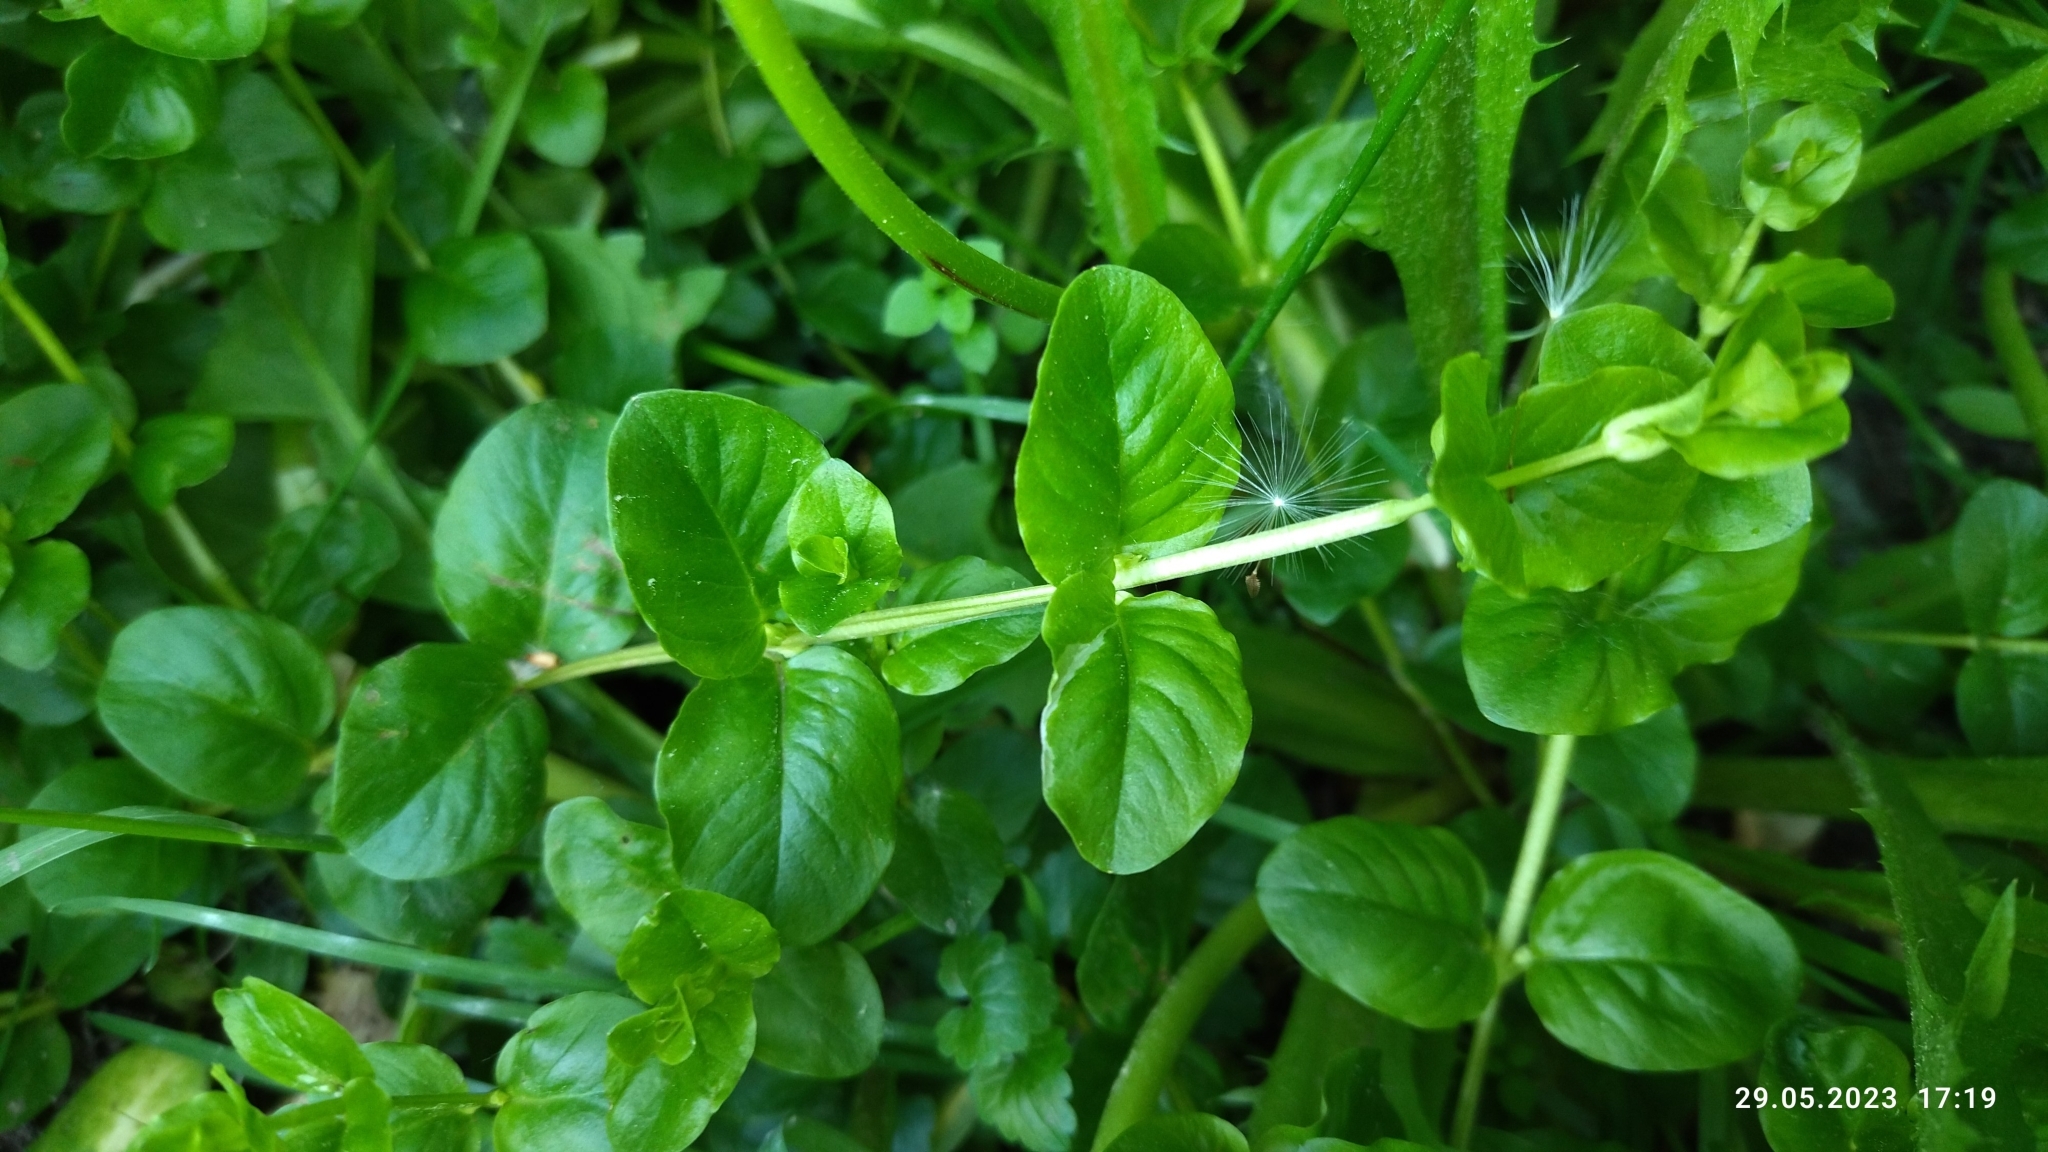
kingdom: Plantae
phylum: Tracheophyta
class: Magnoliopsida
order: Ericales
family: Primulaceae
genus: Lysimachia
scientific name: Lysimachia nummularia
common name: Moneywort
